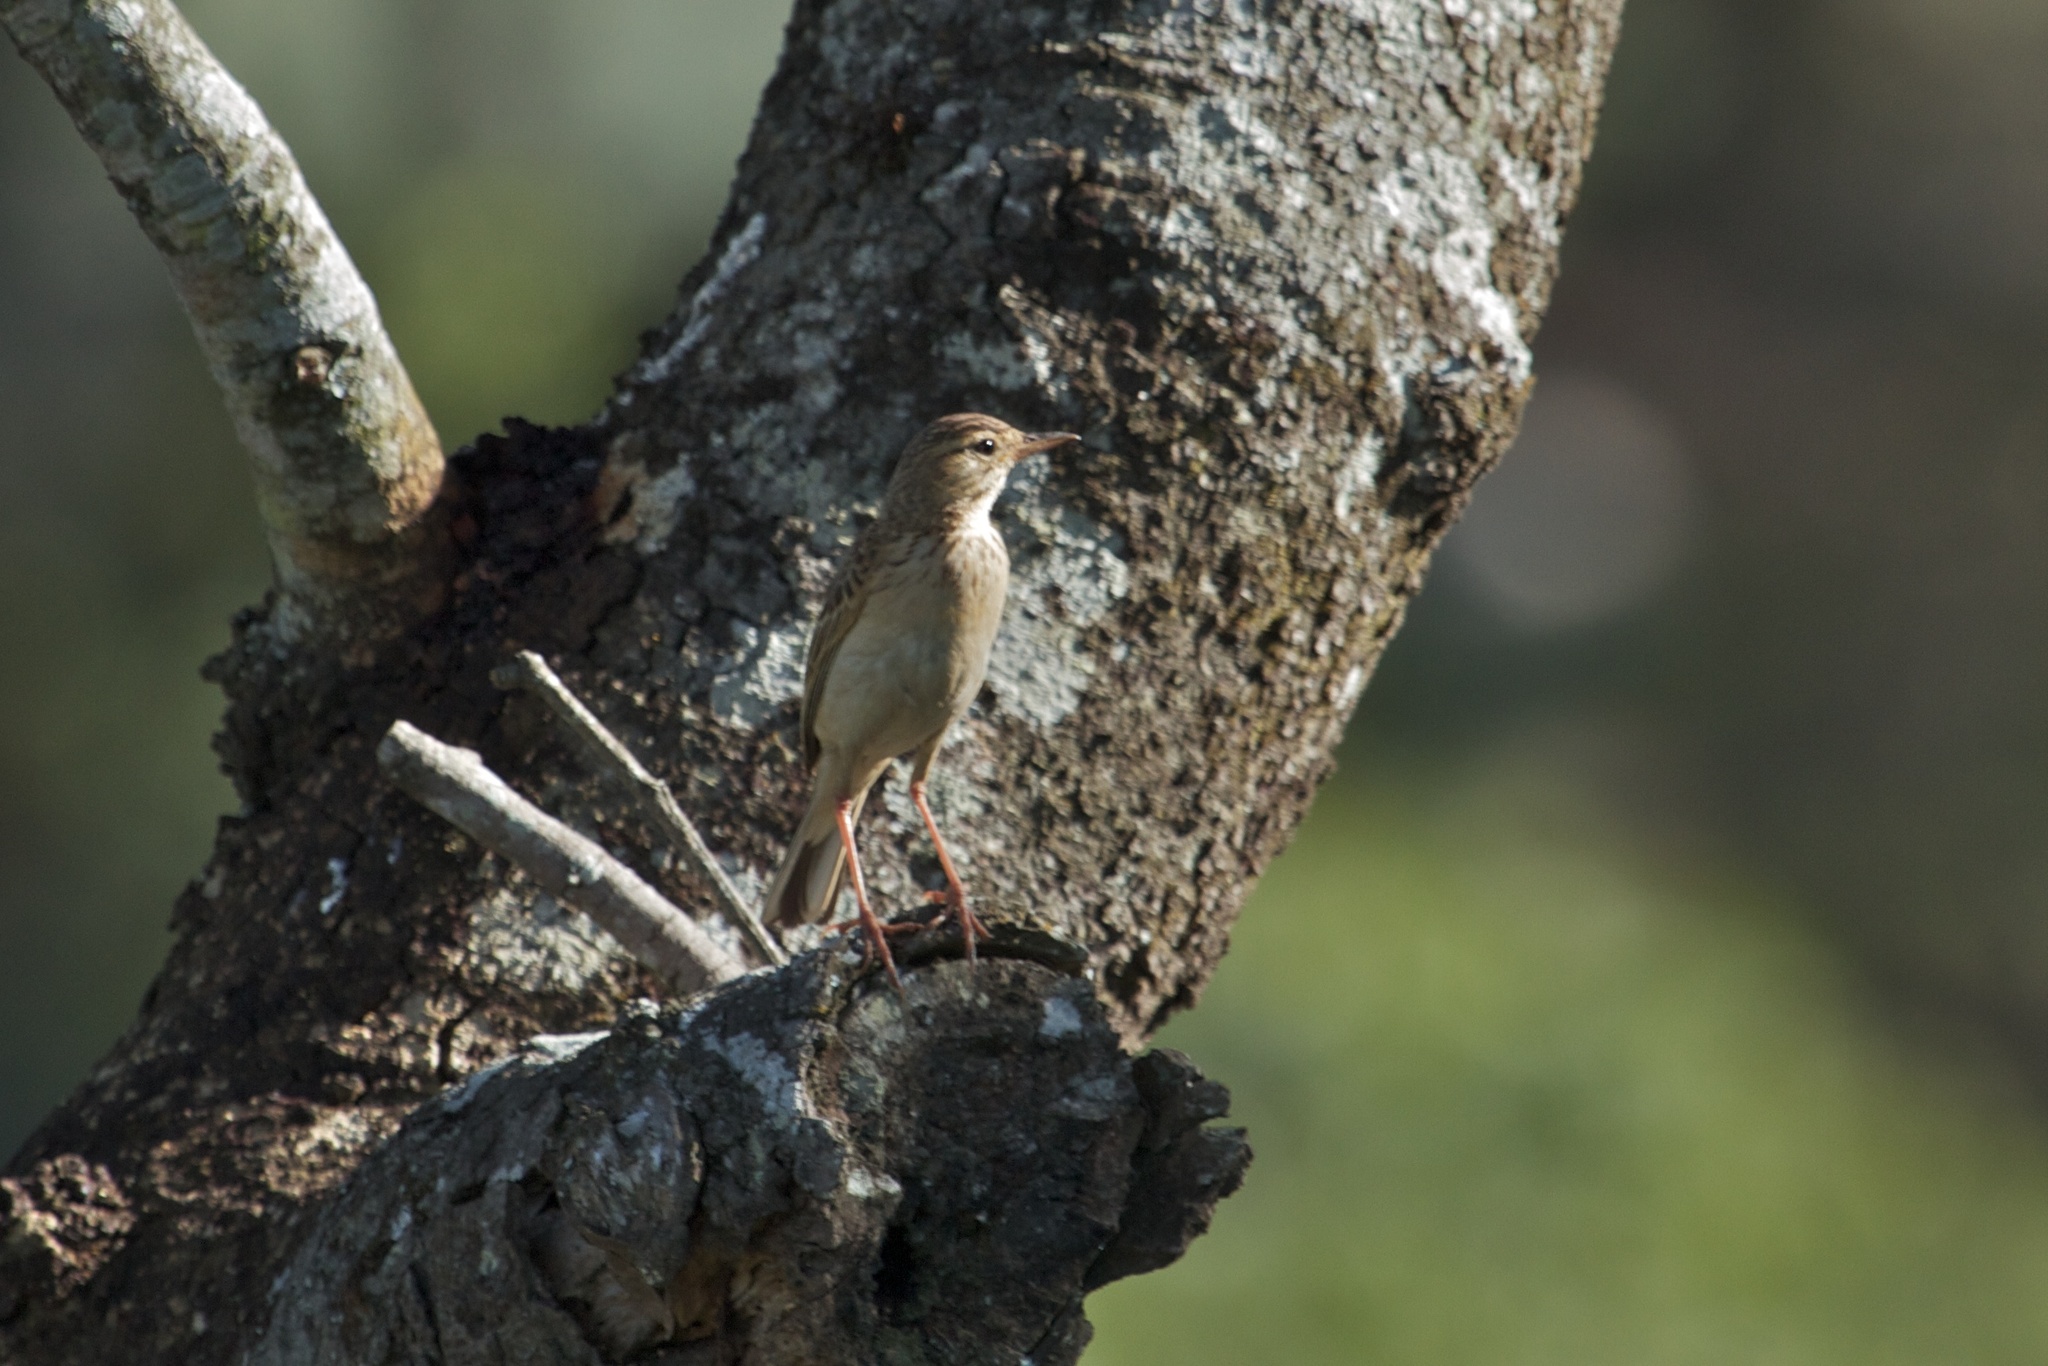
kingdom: Animalia
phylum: Chordata
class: Aves
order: Passeriformes
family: Motacillidae
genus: Anthus
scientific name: Anthus nyassae
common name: Wood pipit
